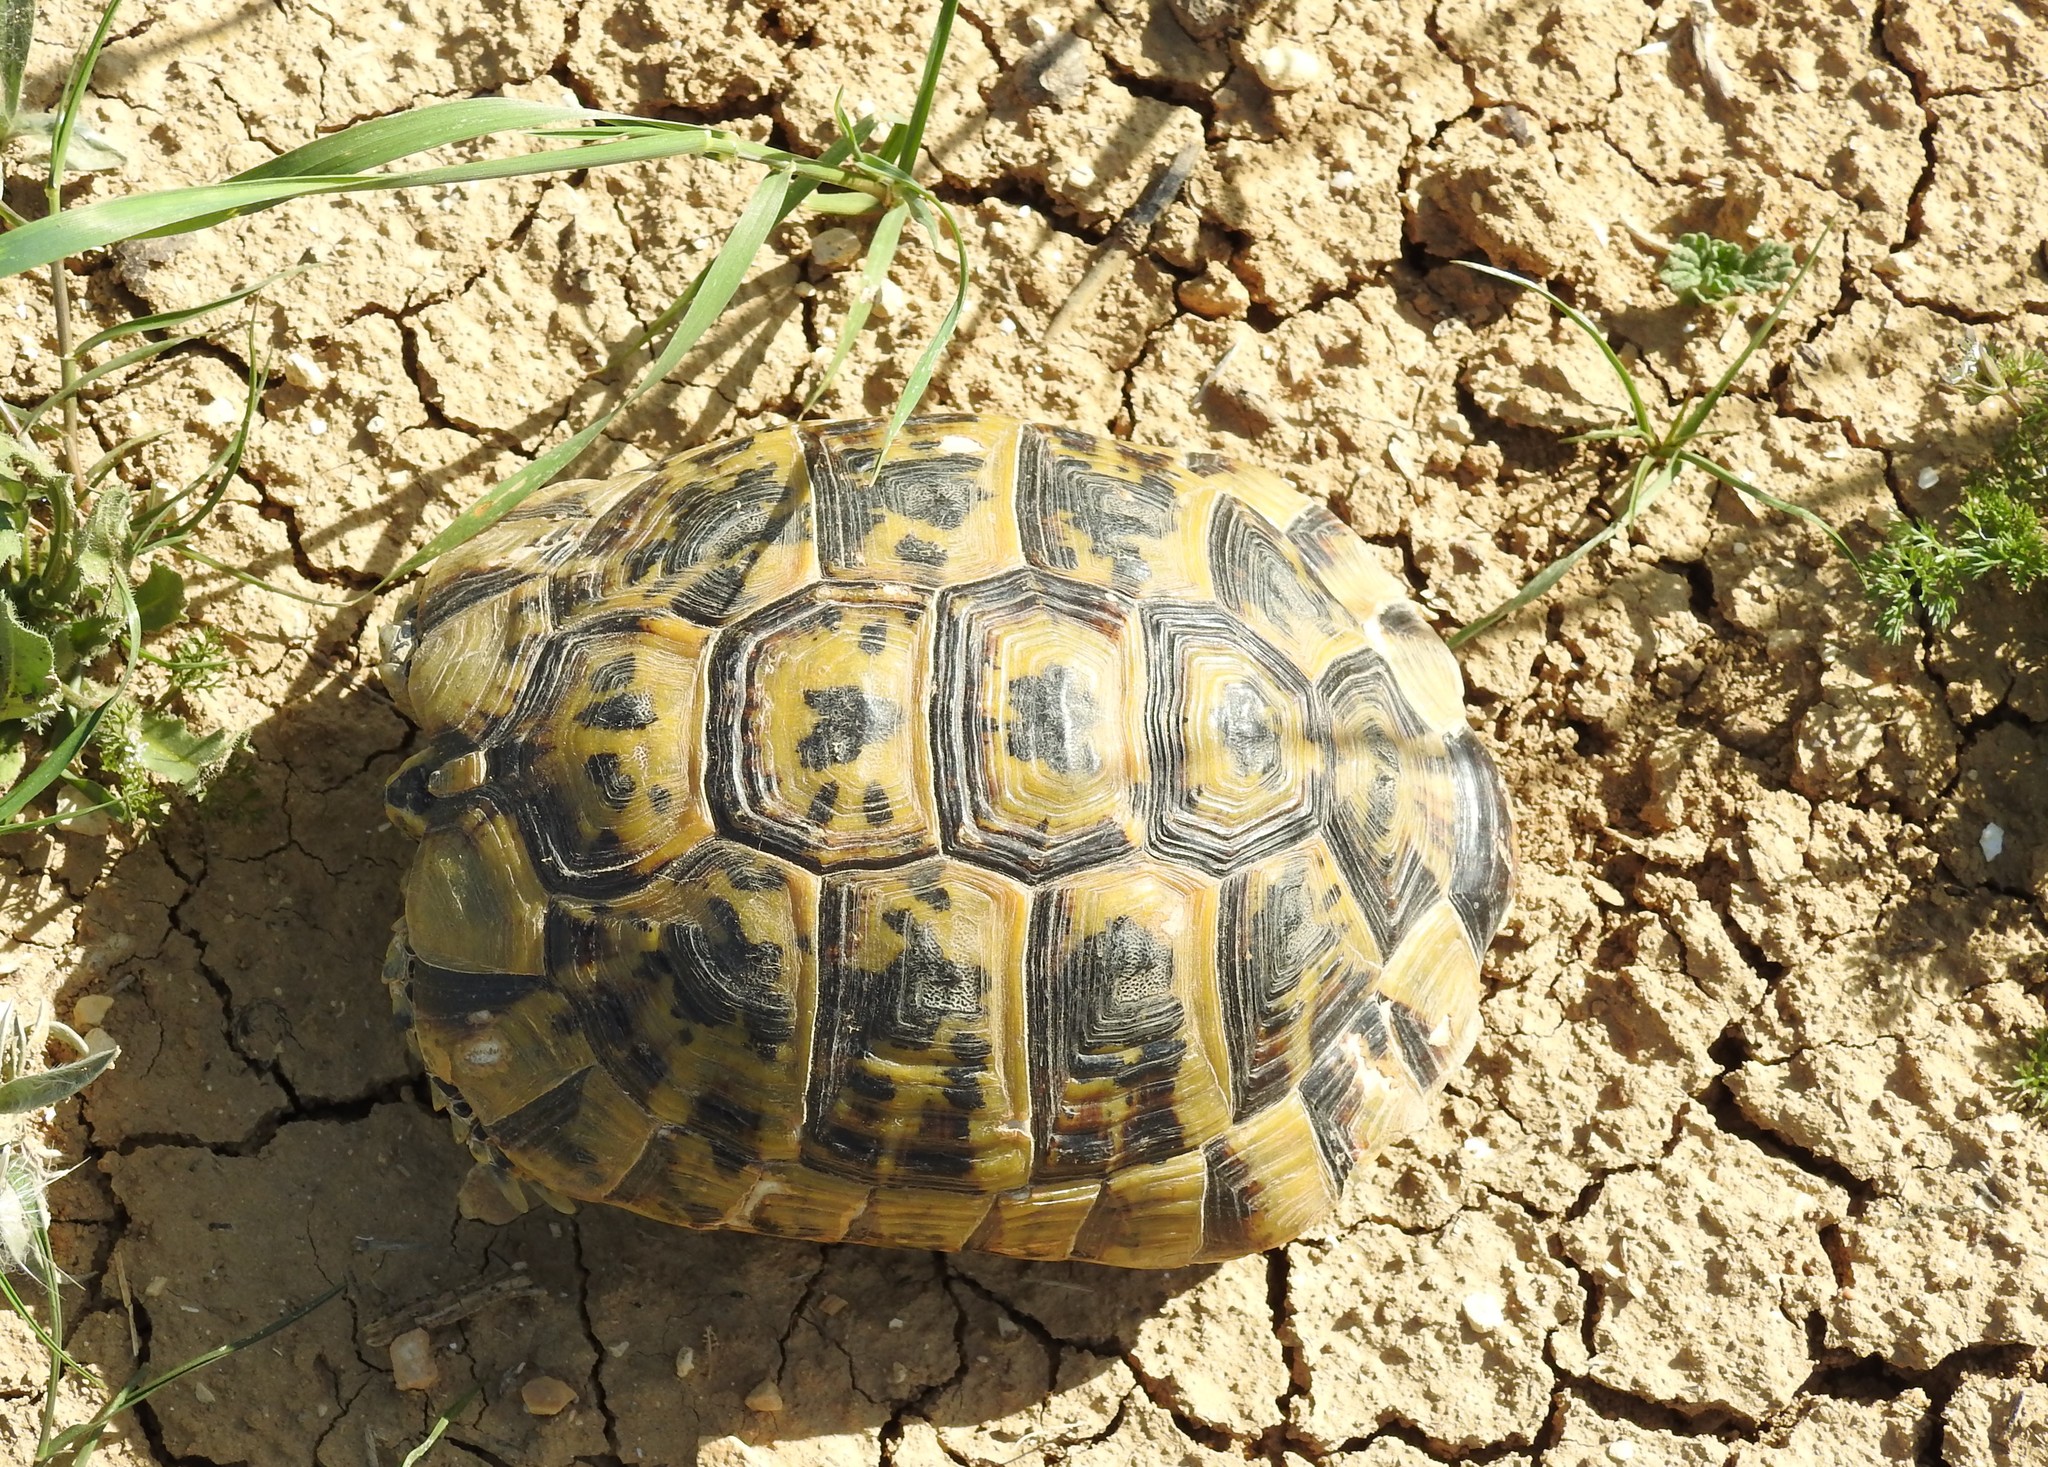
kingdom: Animalia
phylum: Chordata
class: Testudines
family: Testudinidae
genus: Testudo
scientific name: Testudo graeca
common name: Common tortoise
